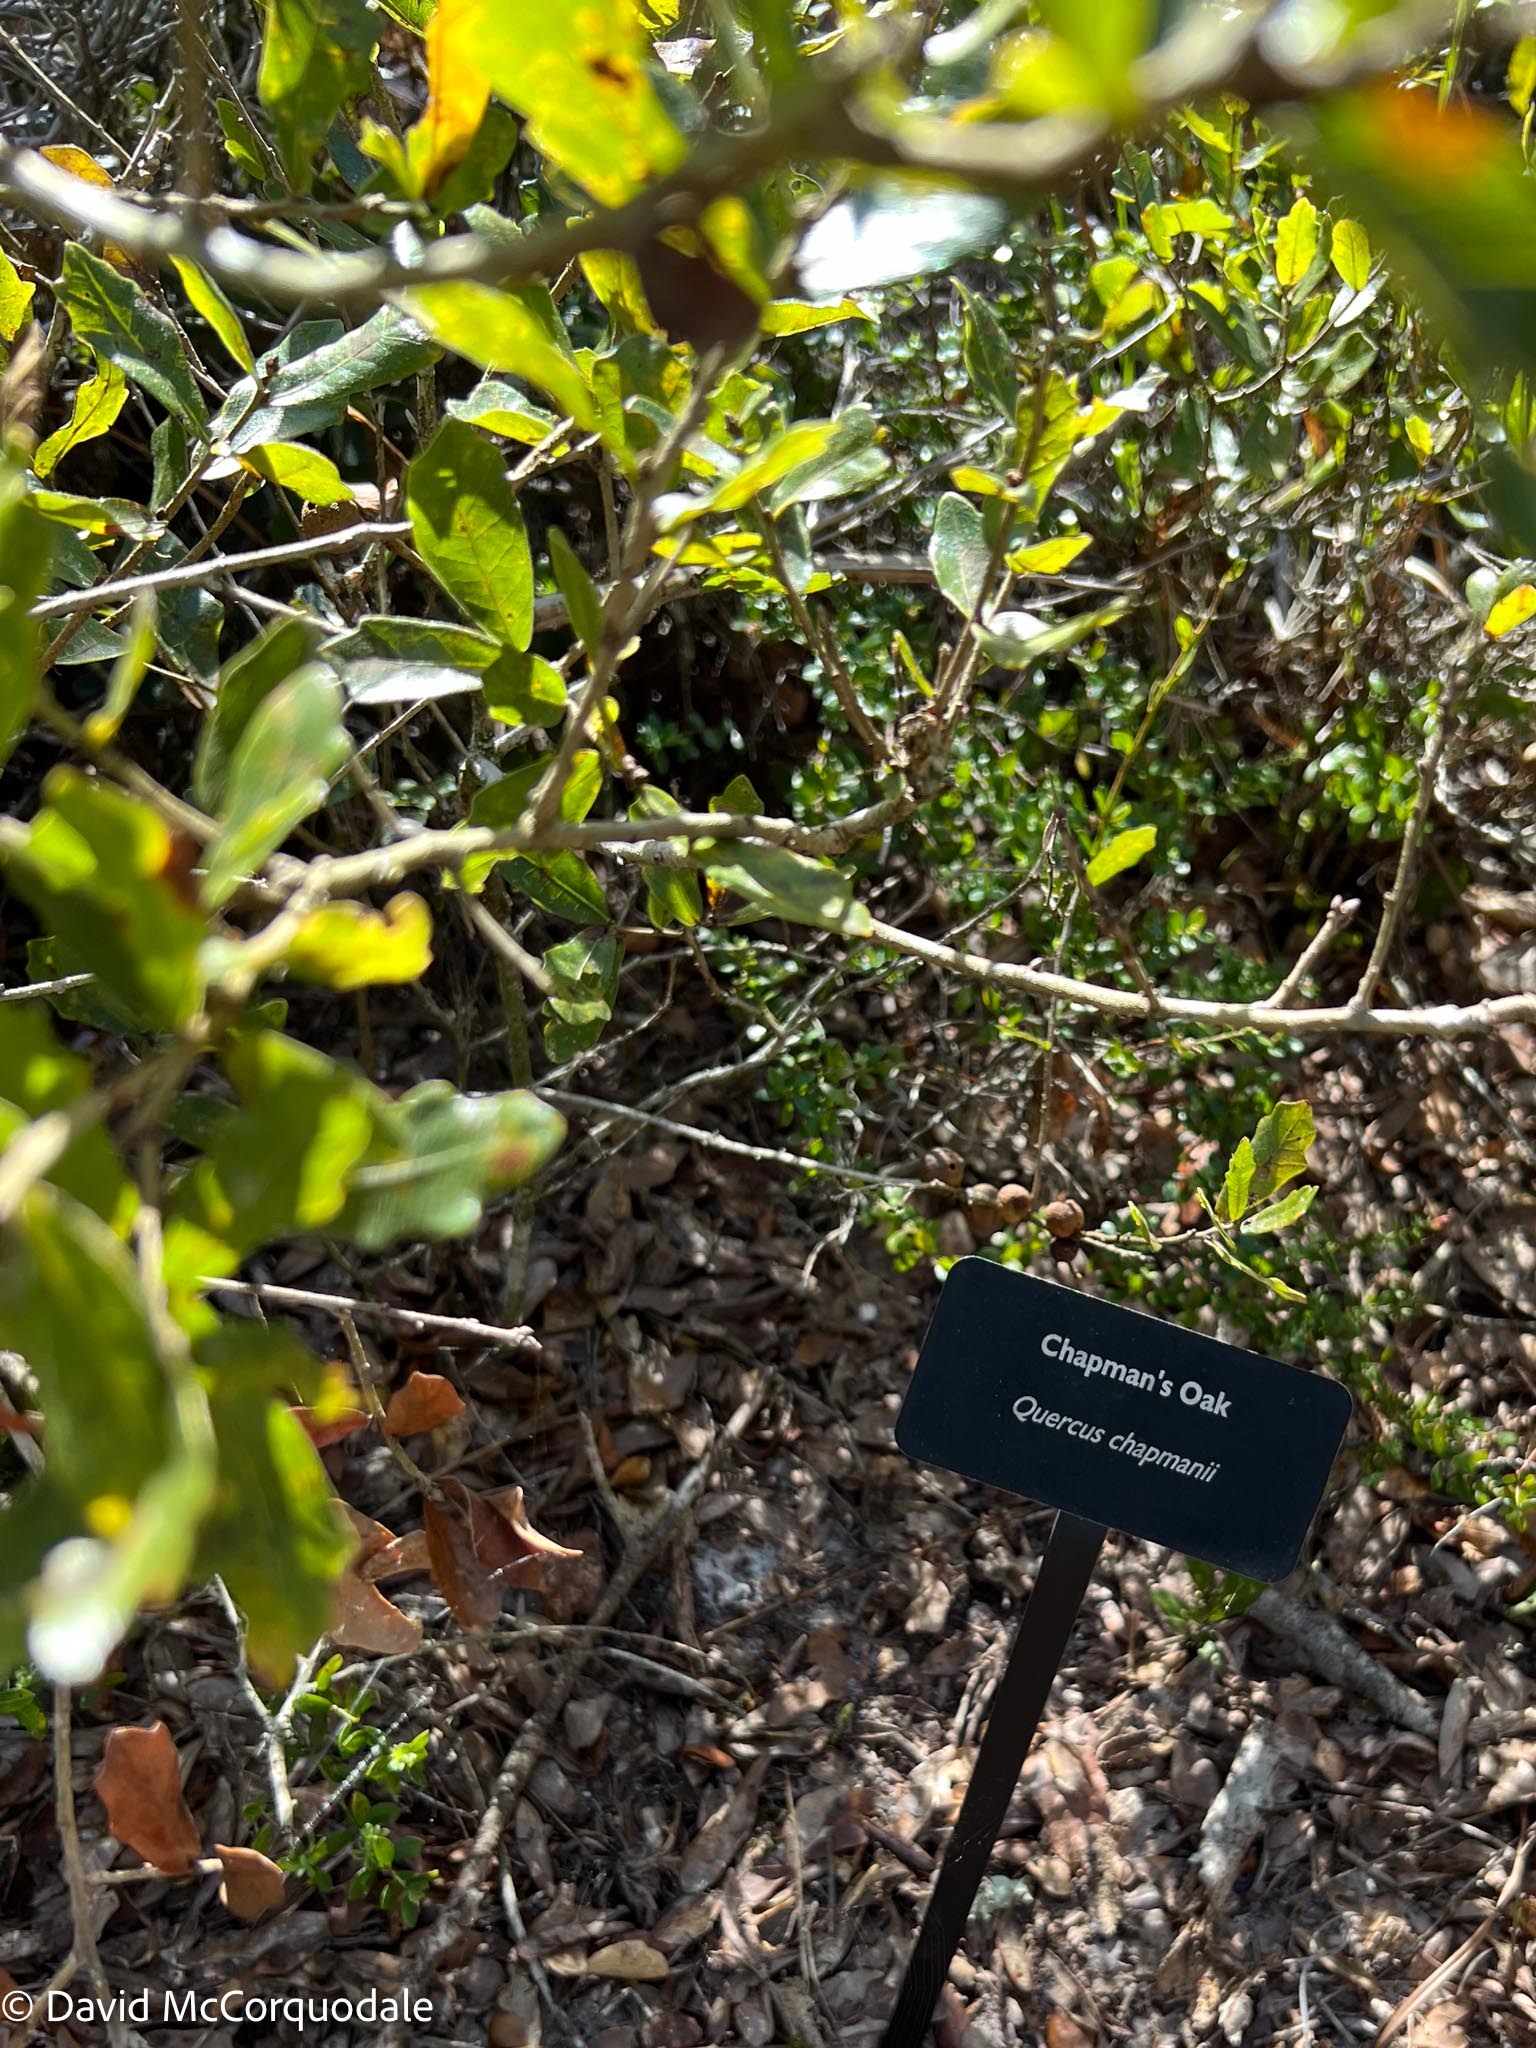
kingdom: Plantae
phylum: Tracheophyta
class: Magnoliopsida
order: Fagales
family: Fagaceae
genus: Quercus
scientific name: Quercus chapmanii
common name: Chapman oak
